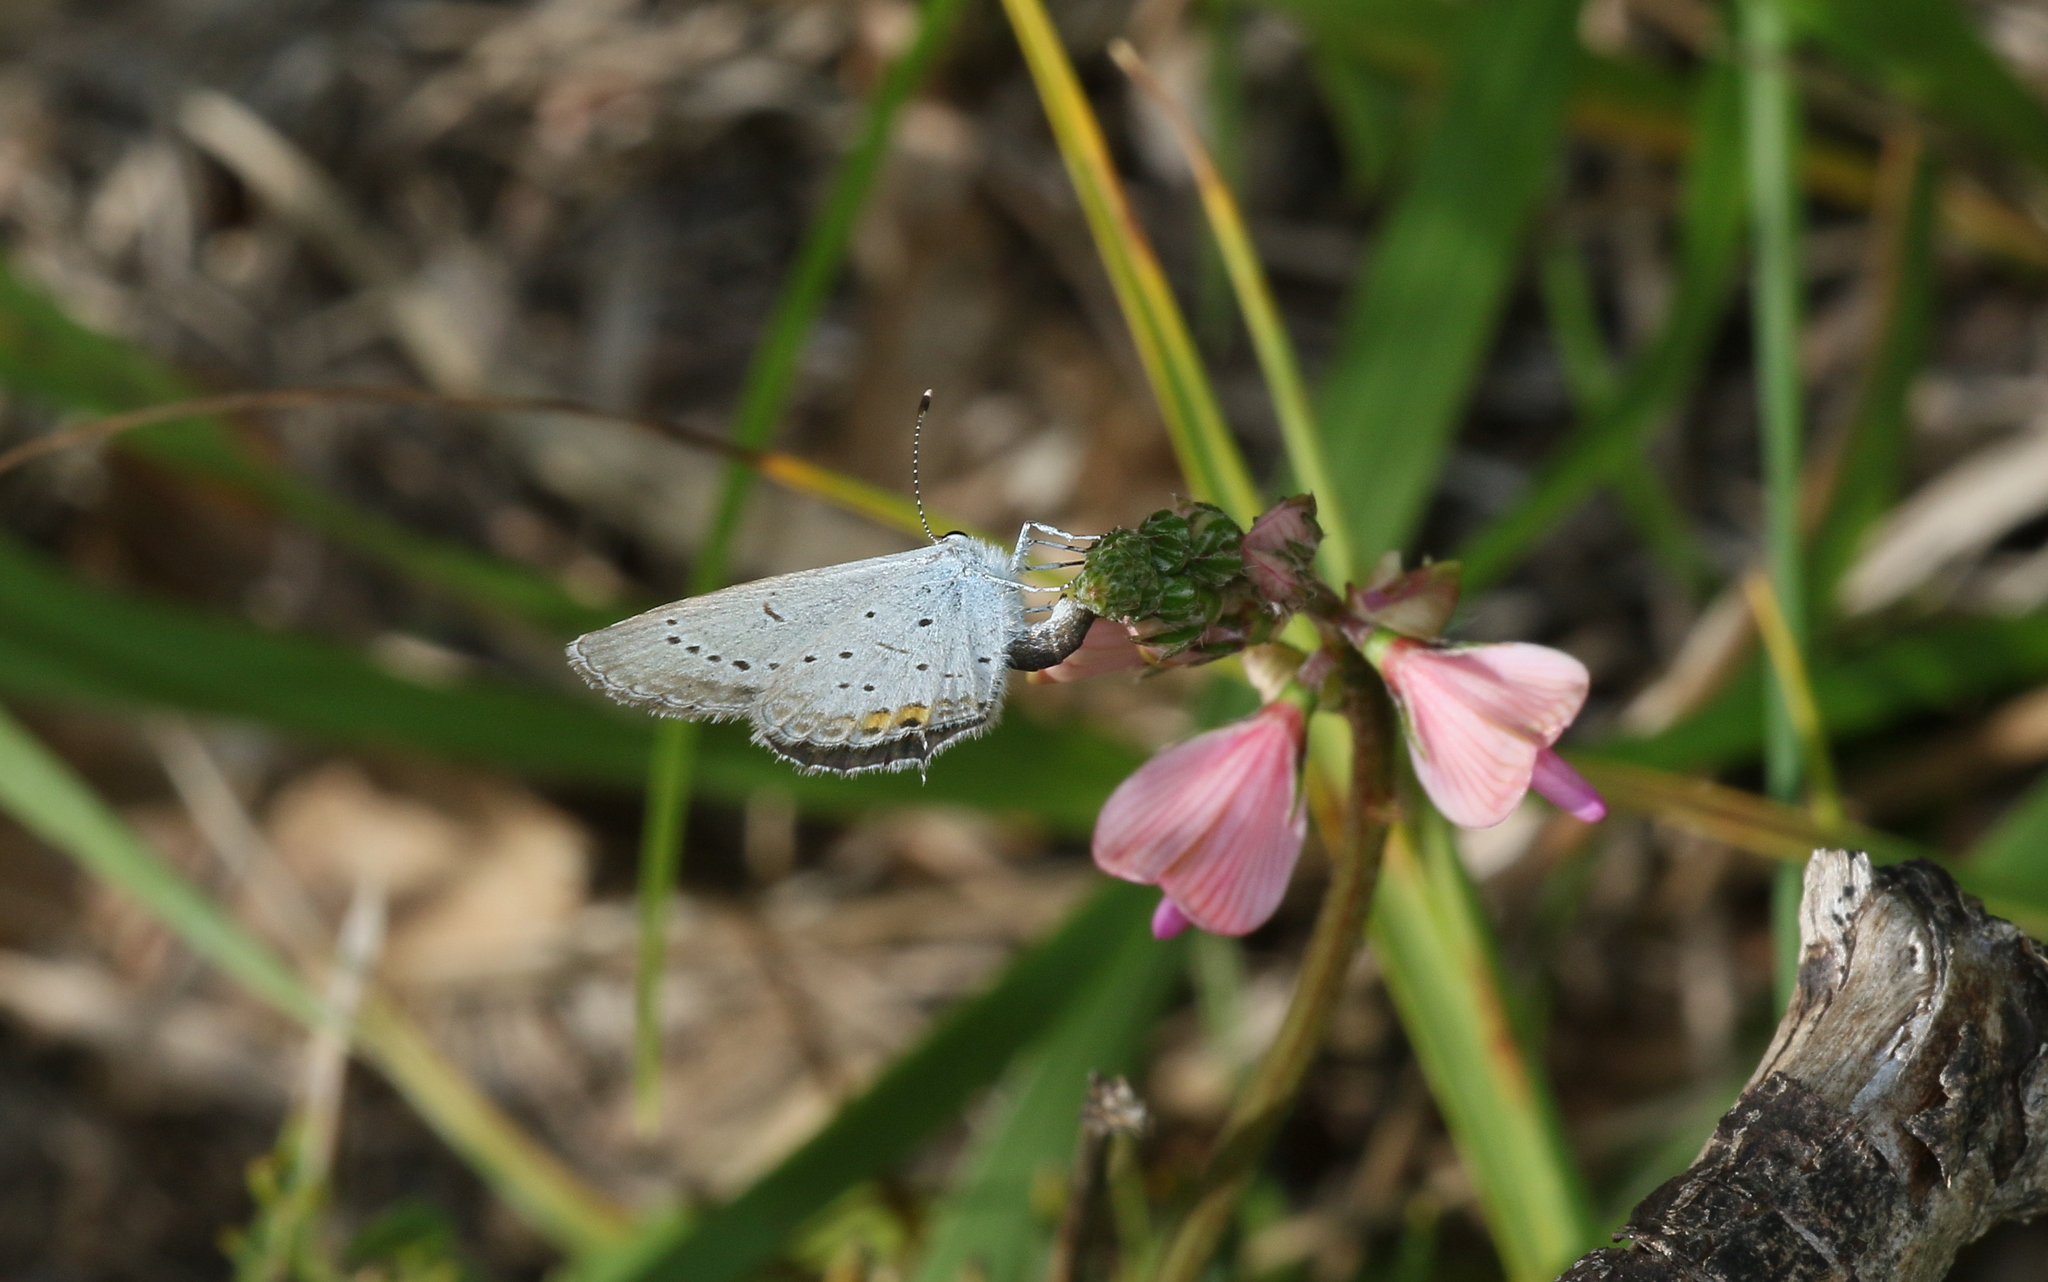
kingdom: Animalia
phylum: Arthropoda
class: Insecta
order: Lepidoptera
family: Lycaenidae
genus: Elkalyce
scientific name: Elkalyce argiades
